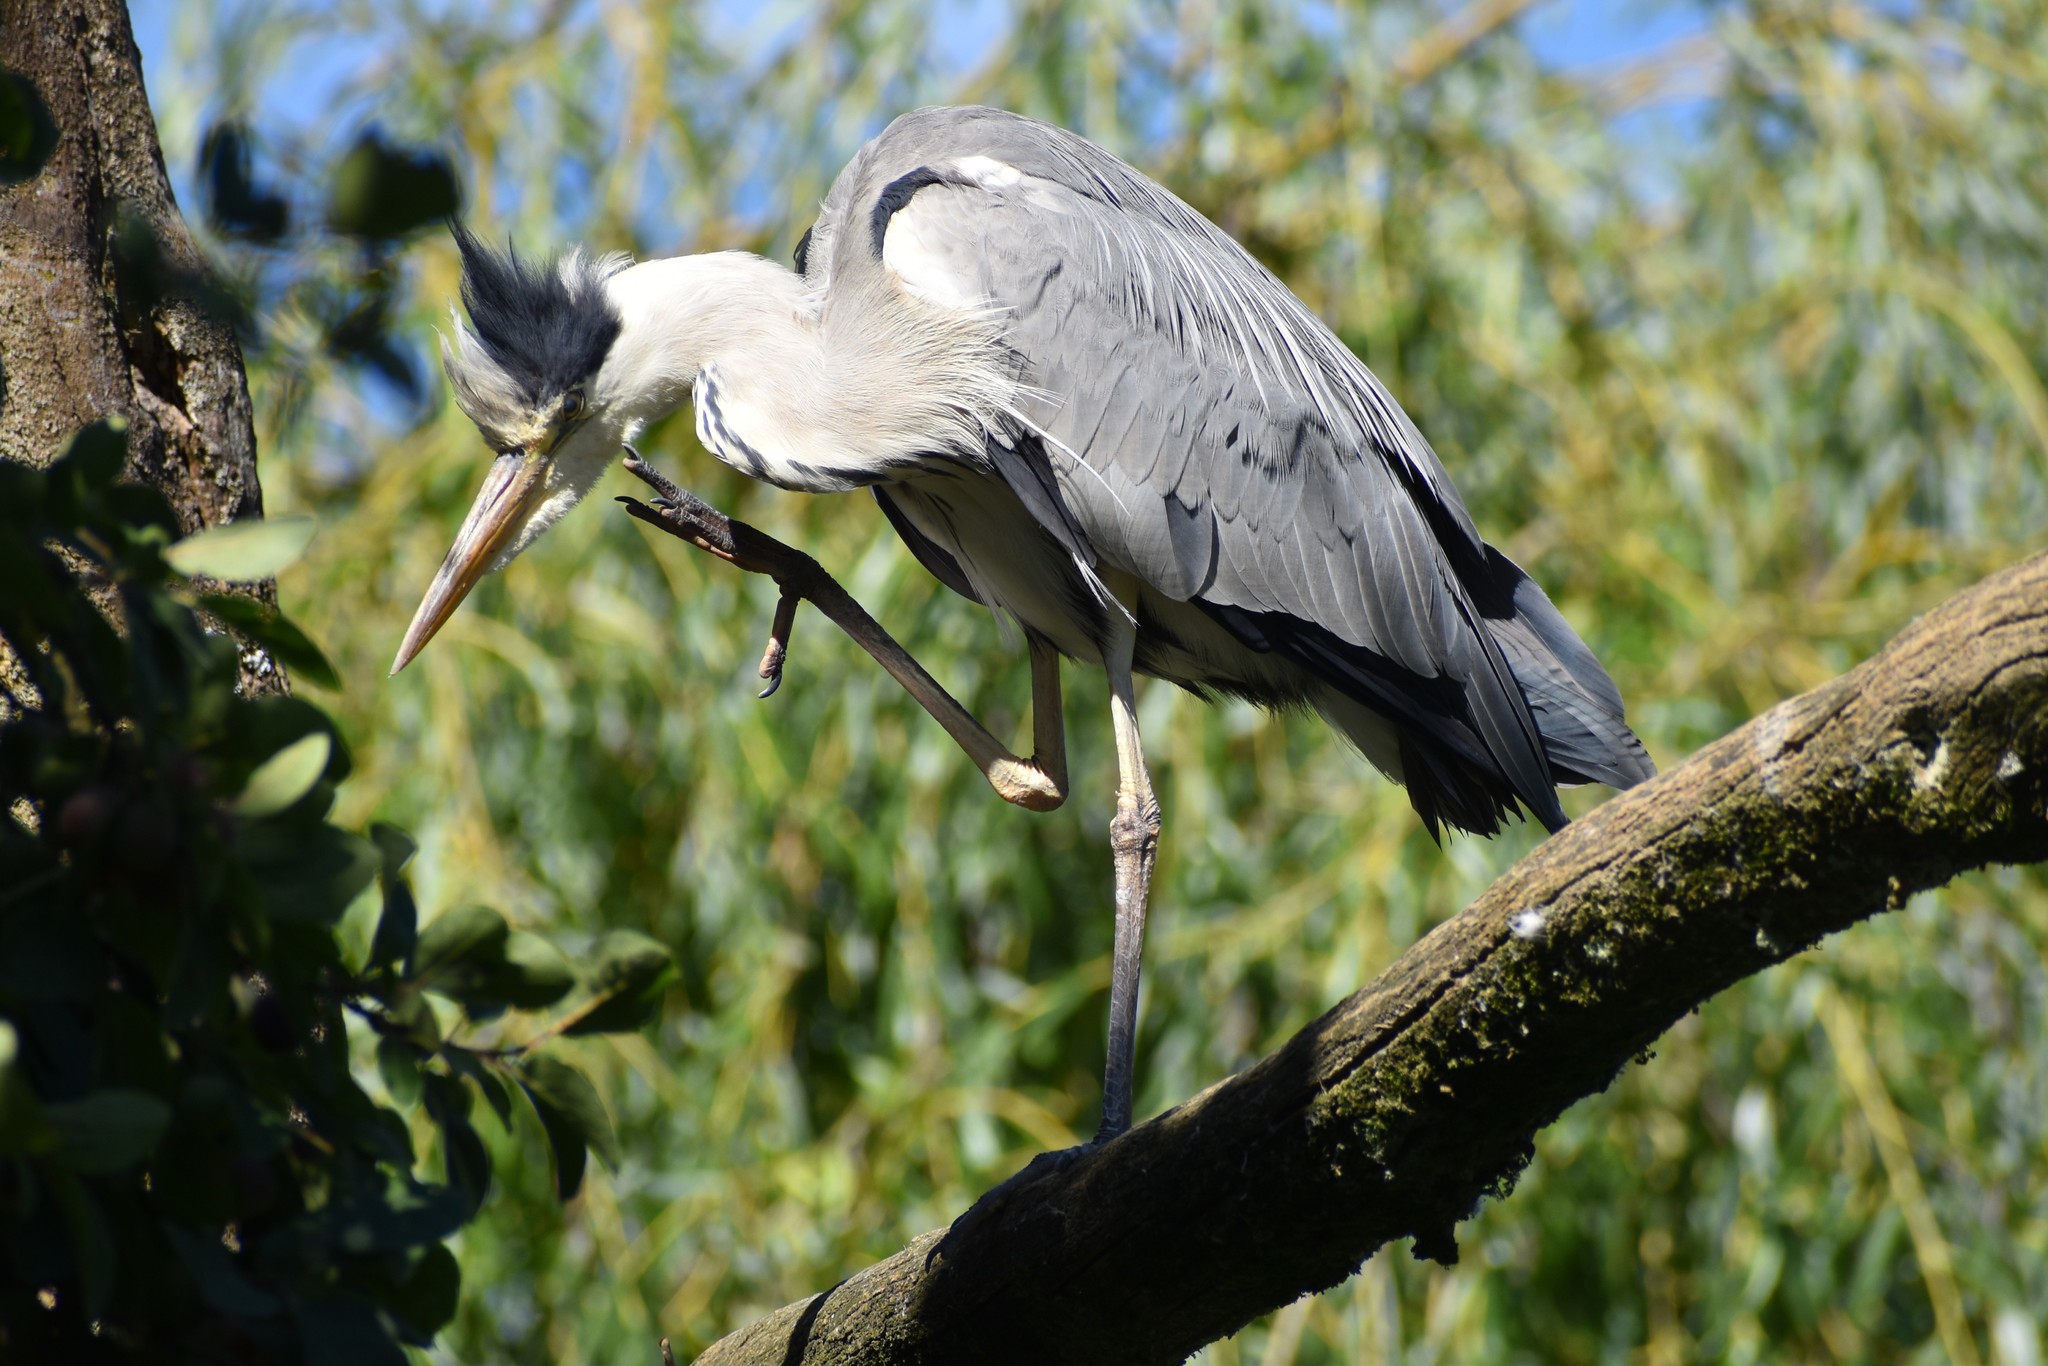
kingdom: Animalia
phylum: Chordata
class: Aves
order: Pelecaniformes
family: Ardeidae
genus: Ardea
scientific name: Ardea cinerea
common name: Grey heron
